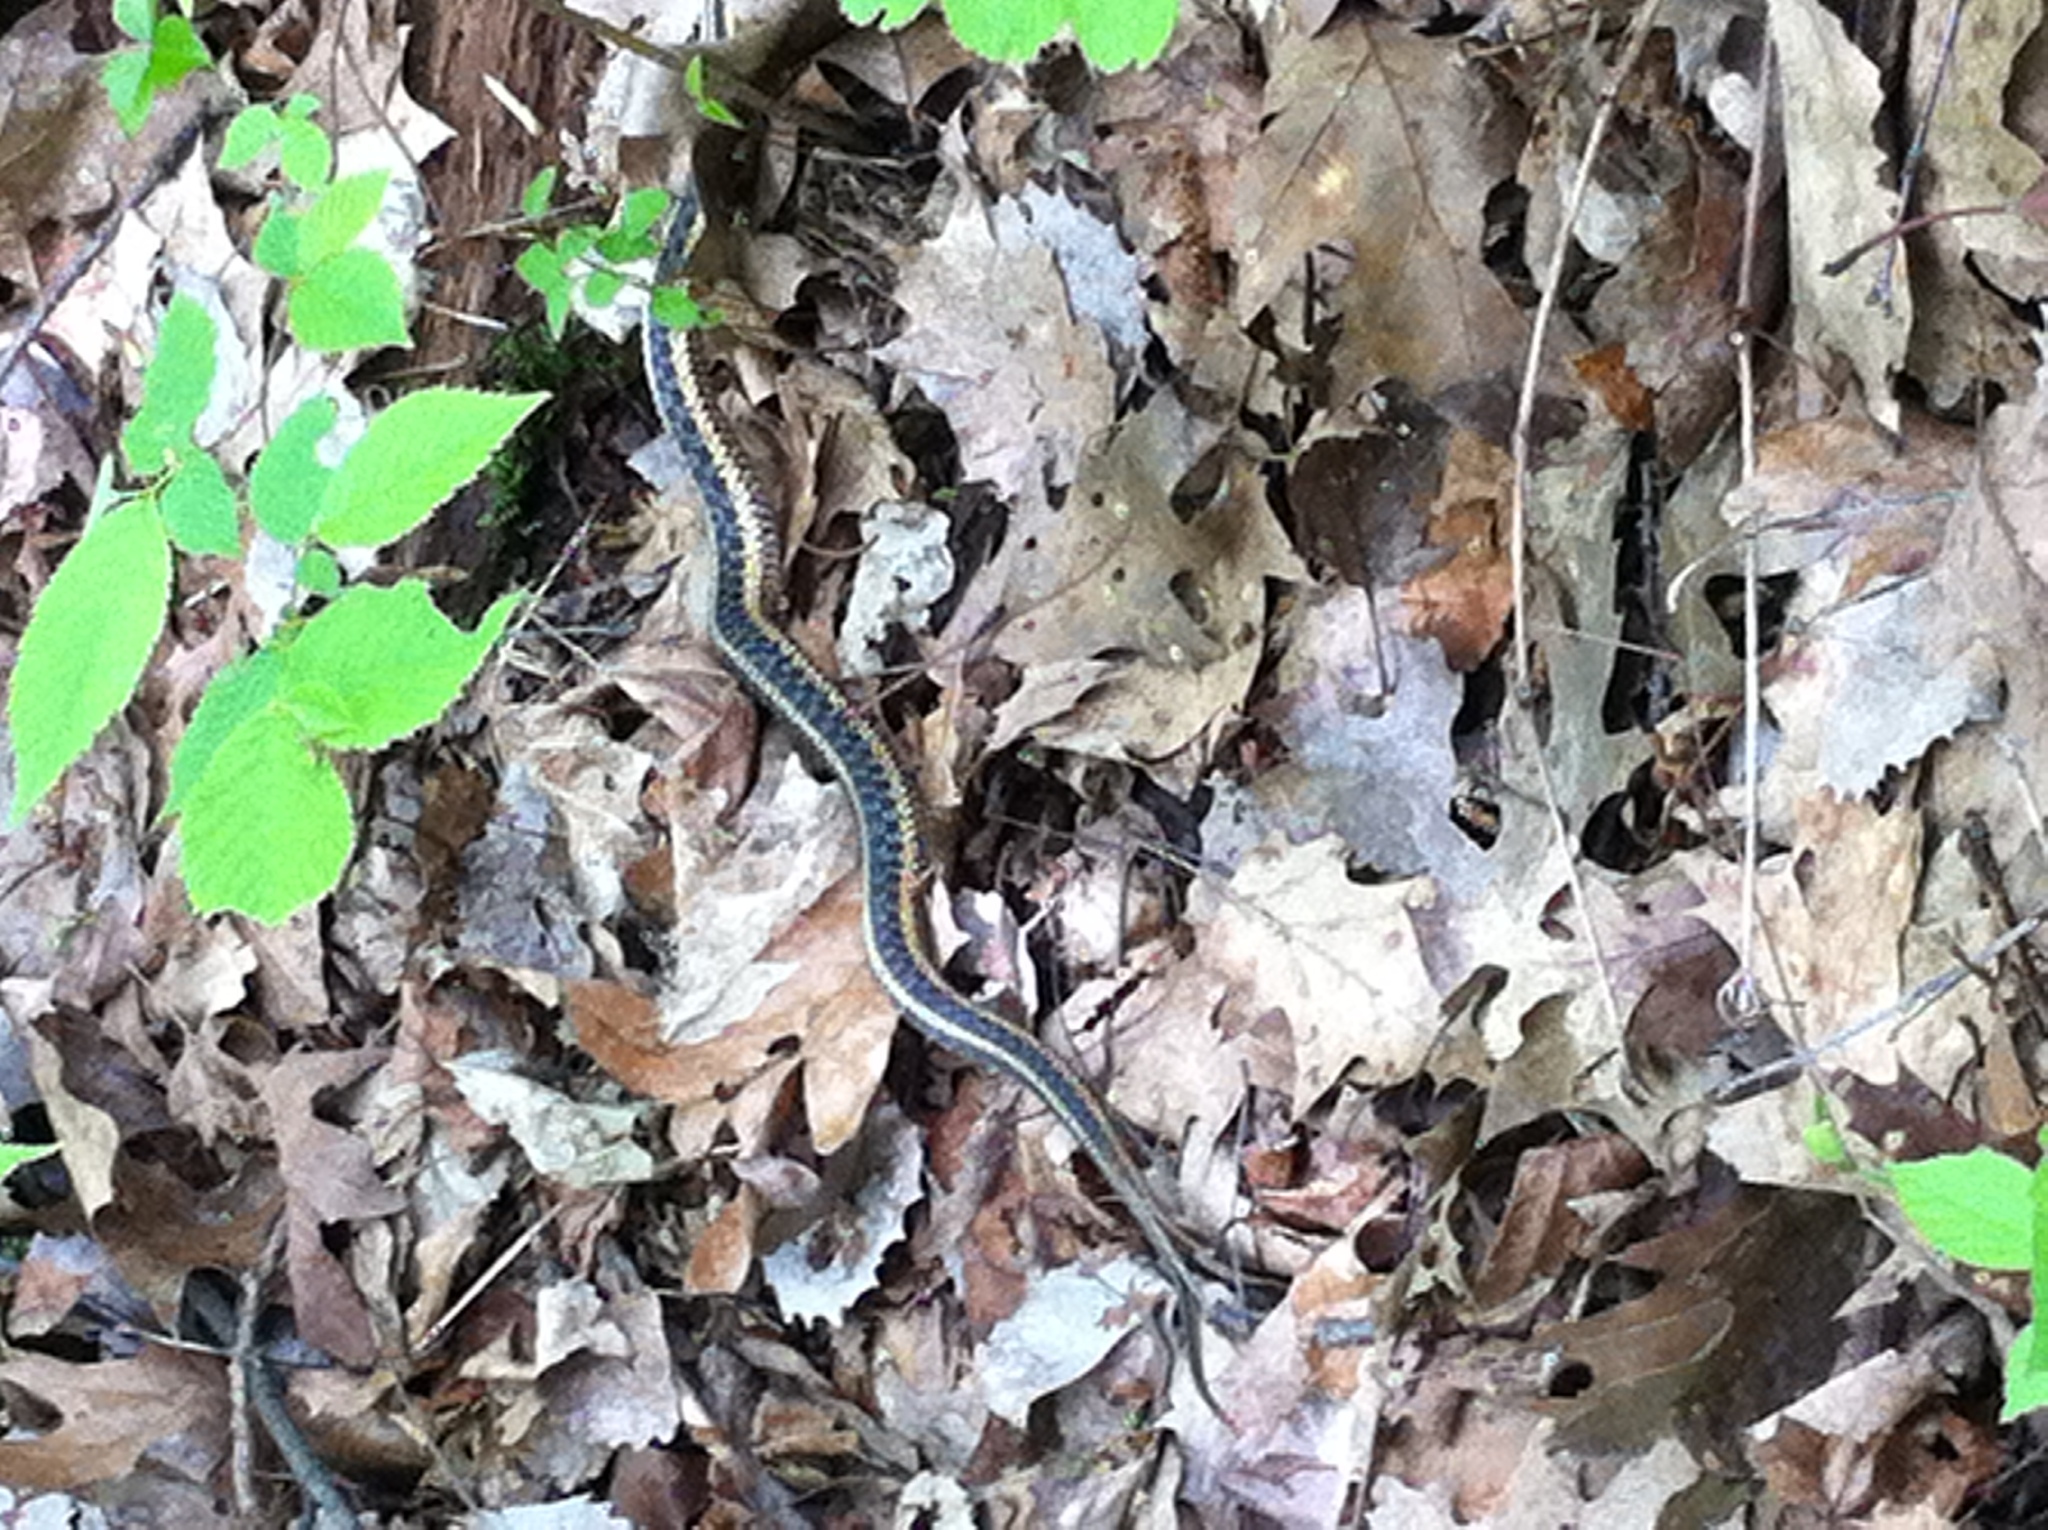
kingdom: Animalia
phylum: Chordata
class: Squamata
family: Colubridae
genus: Thamnophis
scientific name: Thamnophis sirtalis
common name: Common garter snake
